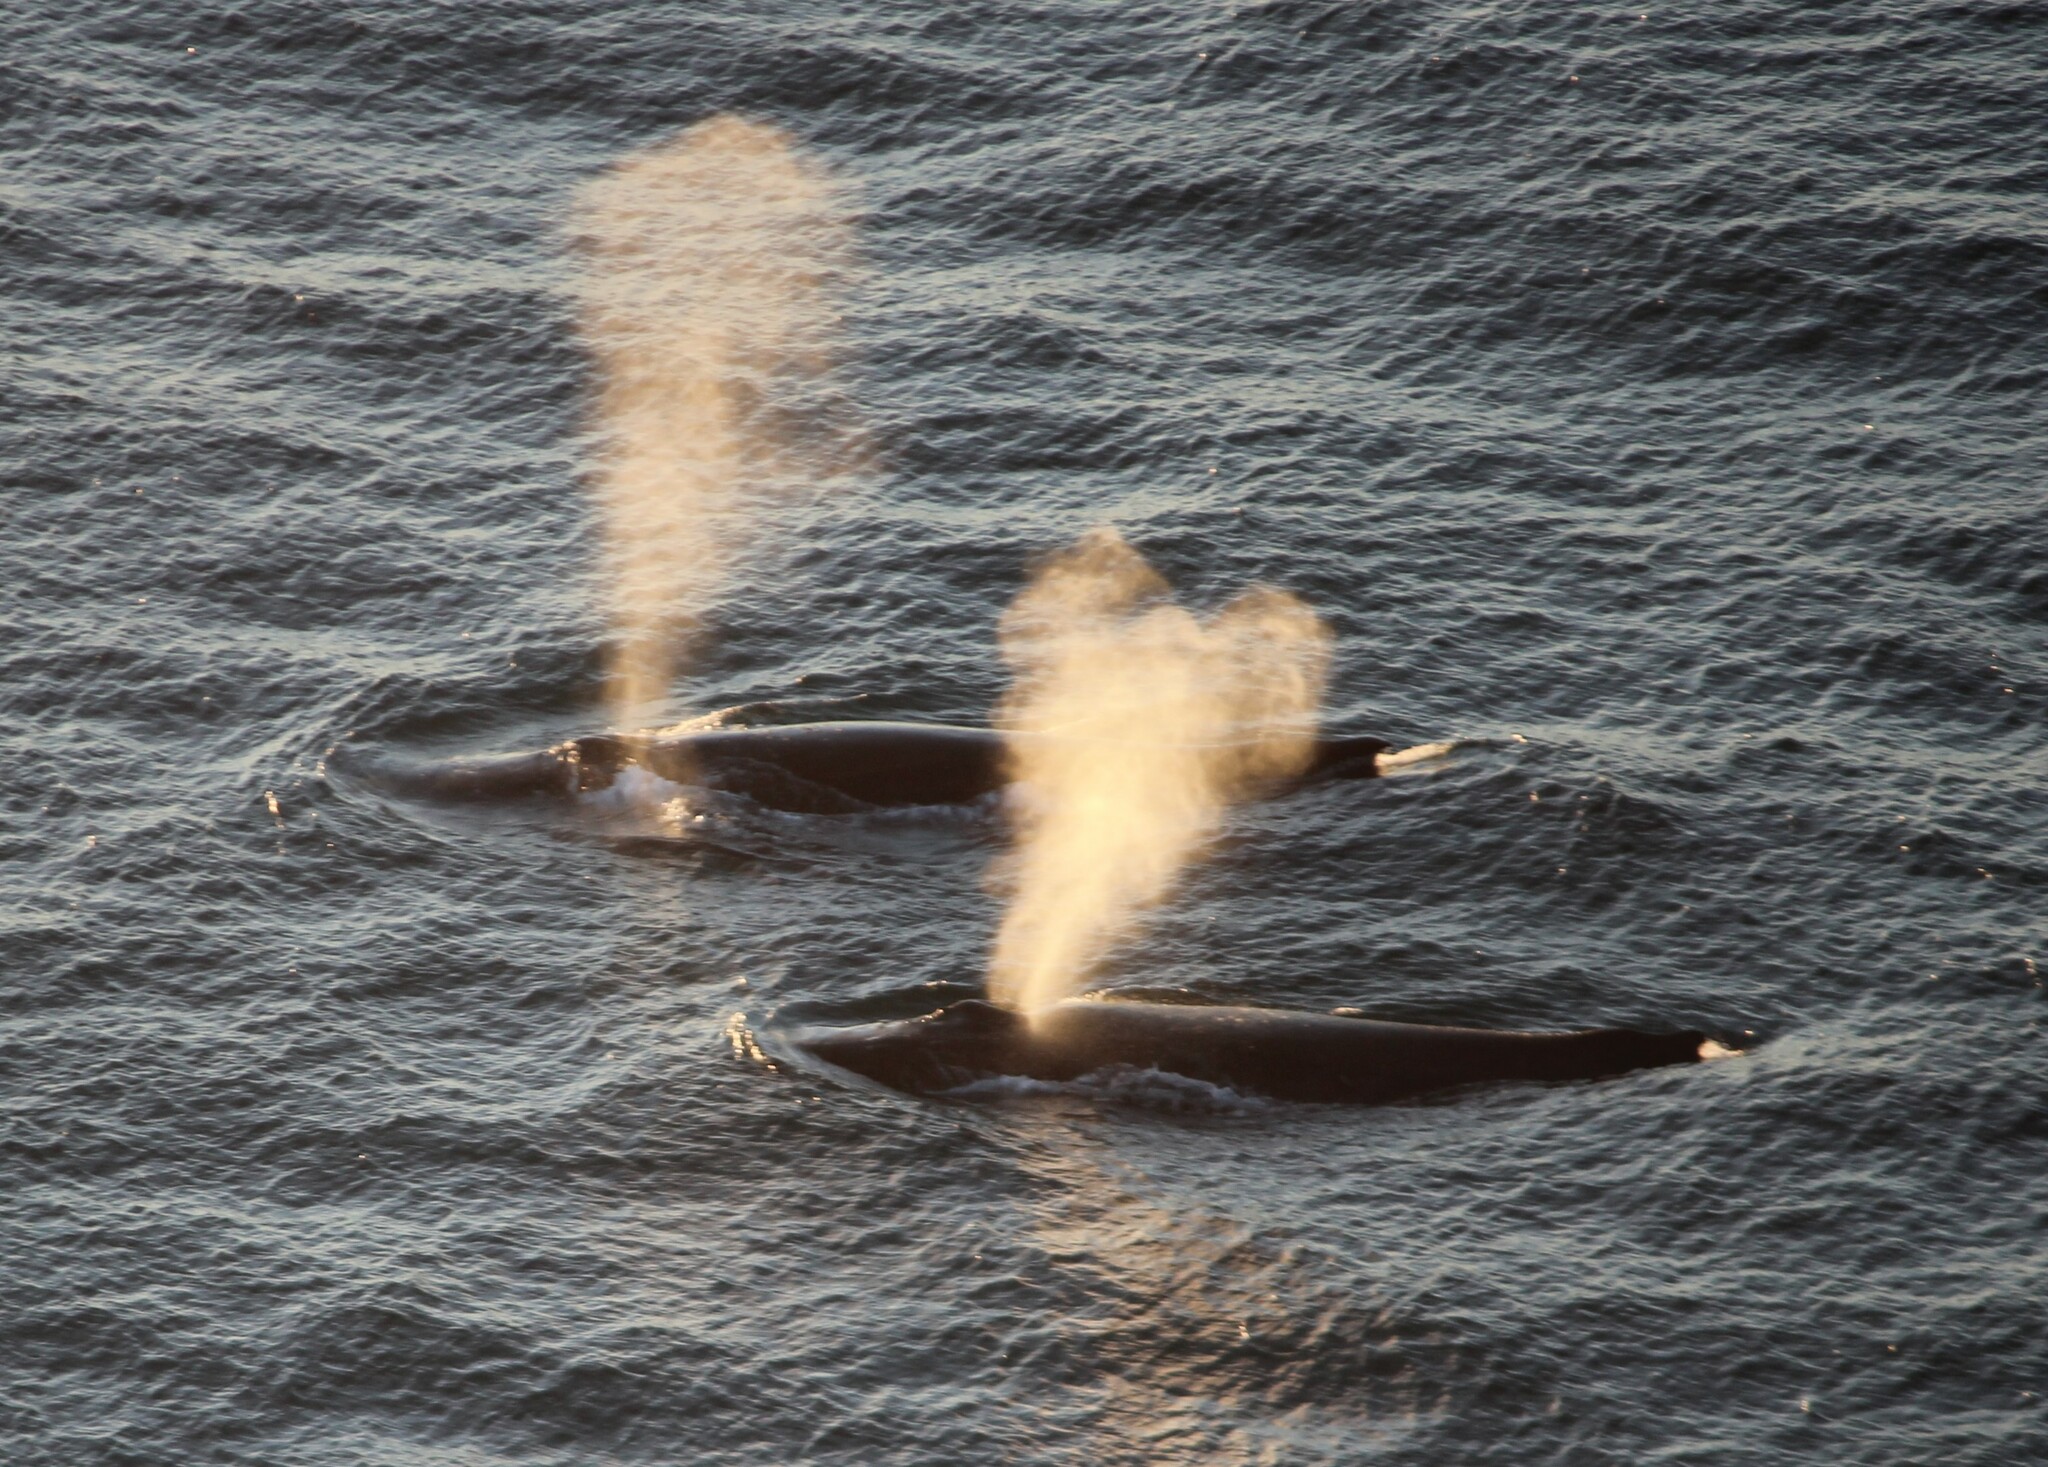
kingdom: Animalia
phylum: Chordata
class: Mammalia
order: Cetacea
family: Balaenopteridae
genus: Megaptera
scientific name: Megaptera novaeangliae
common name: Humpback whale
